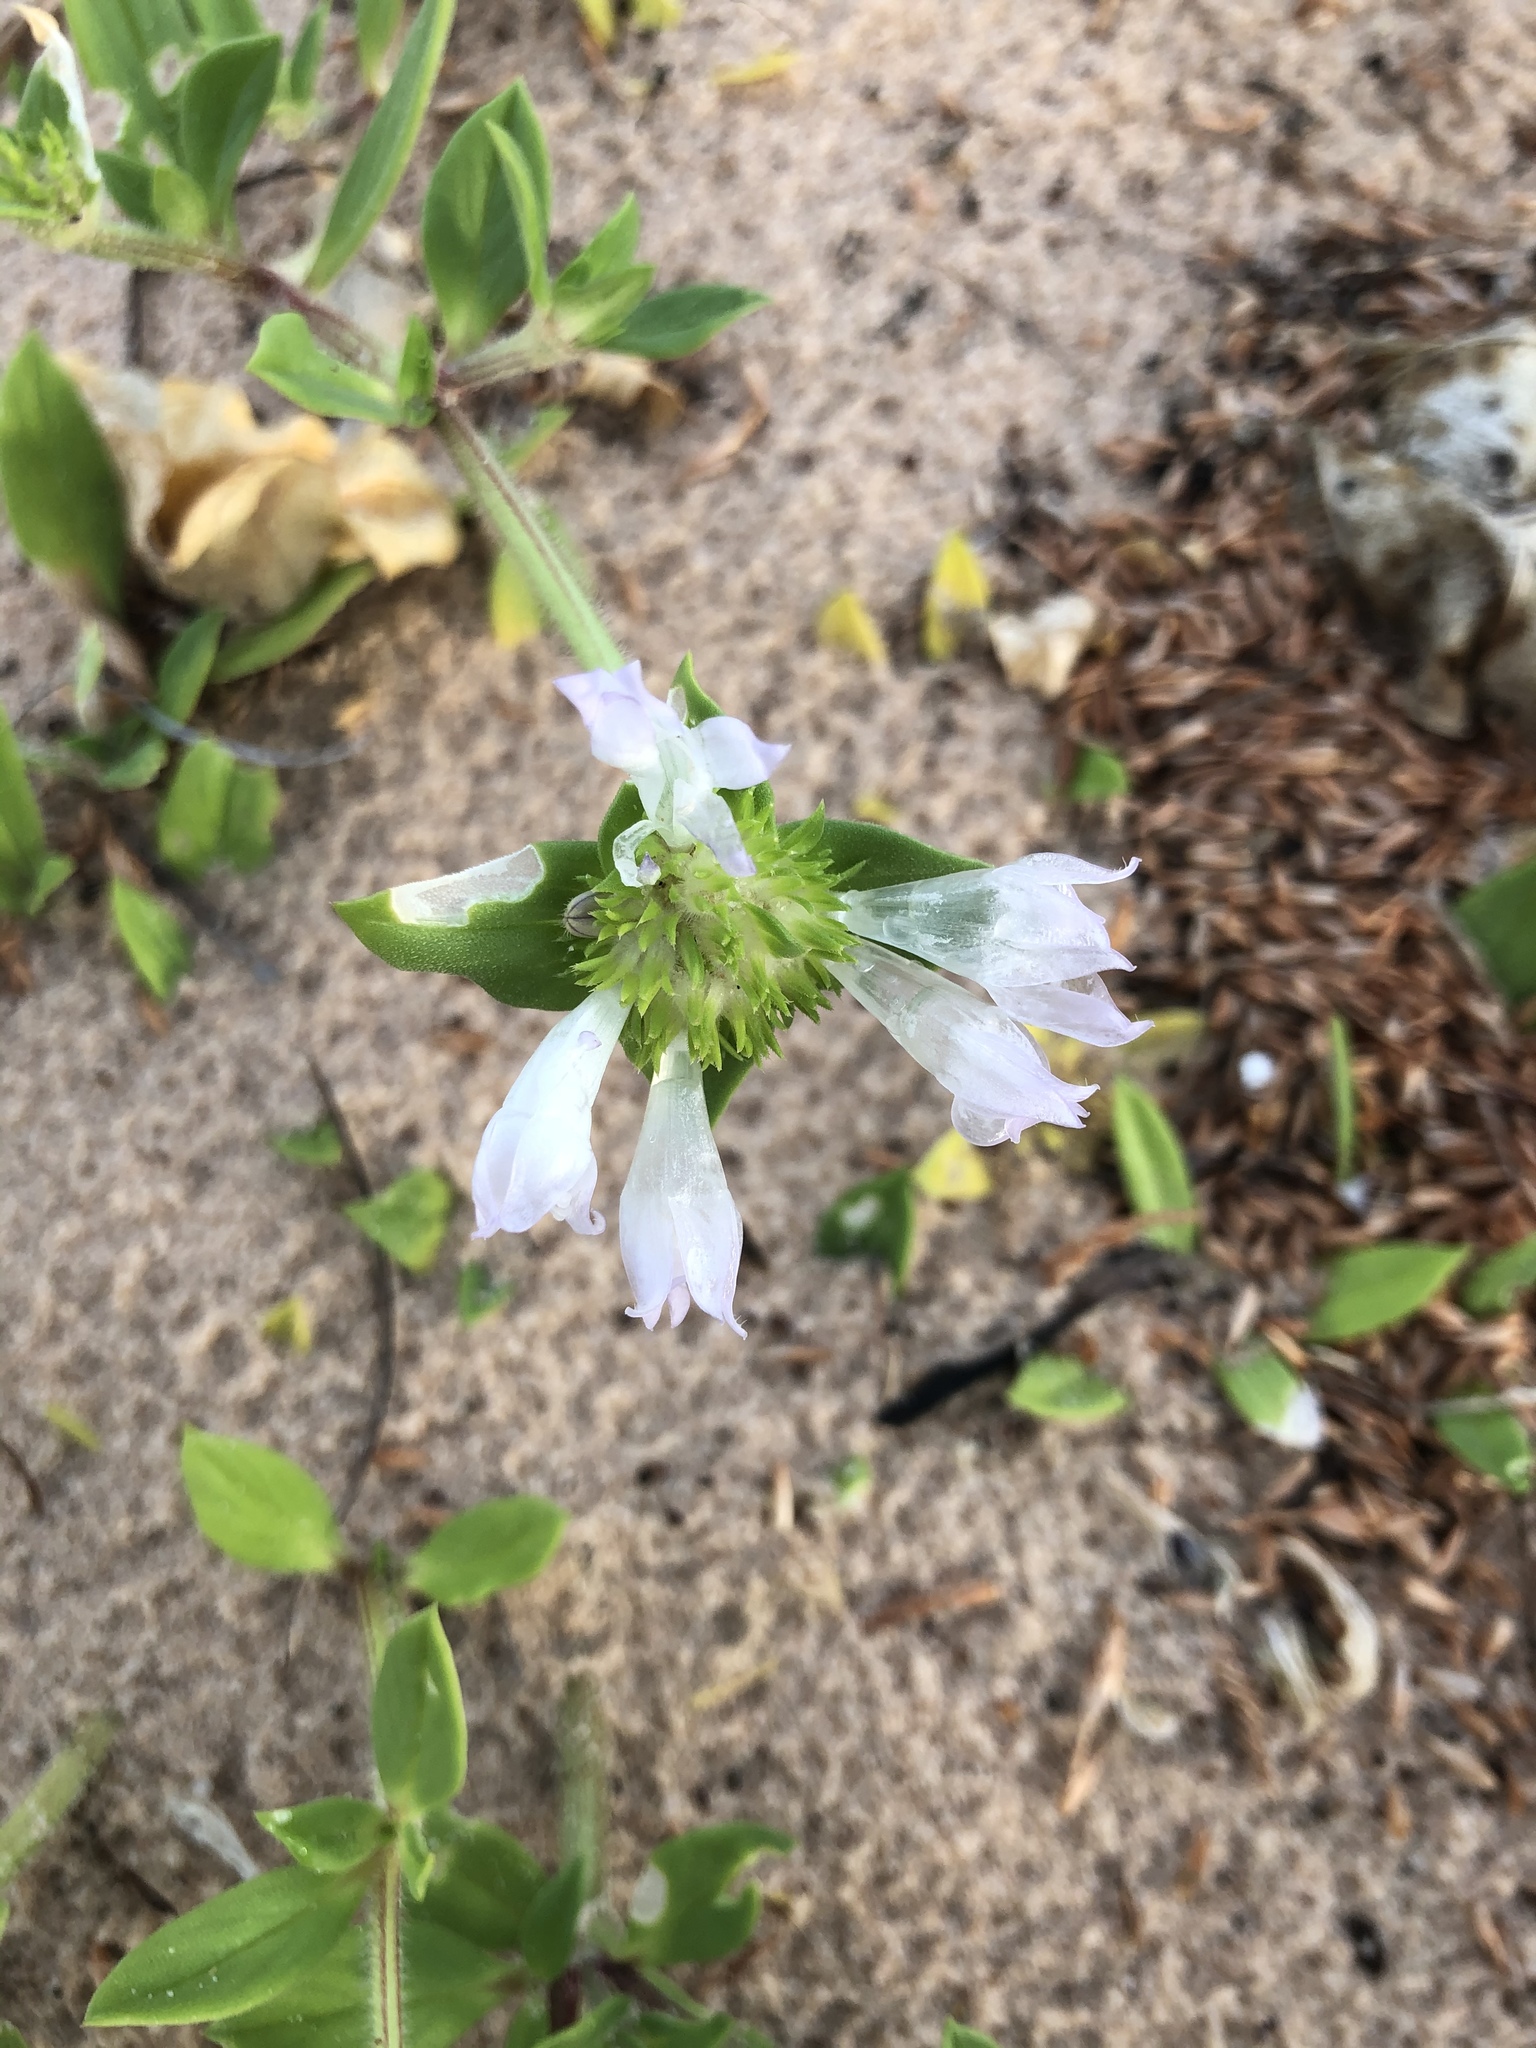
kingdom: Plantae
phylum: Tracheophyta
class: Magnoliopsida
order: Gentianales
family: Rubiaceae
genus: Richardia
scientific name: Richardia grandiflora
